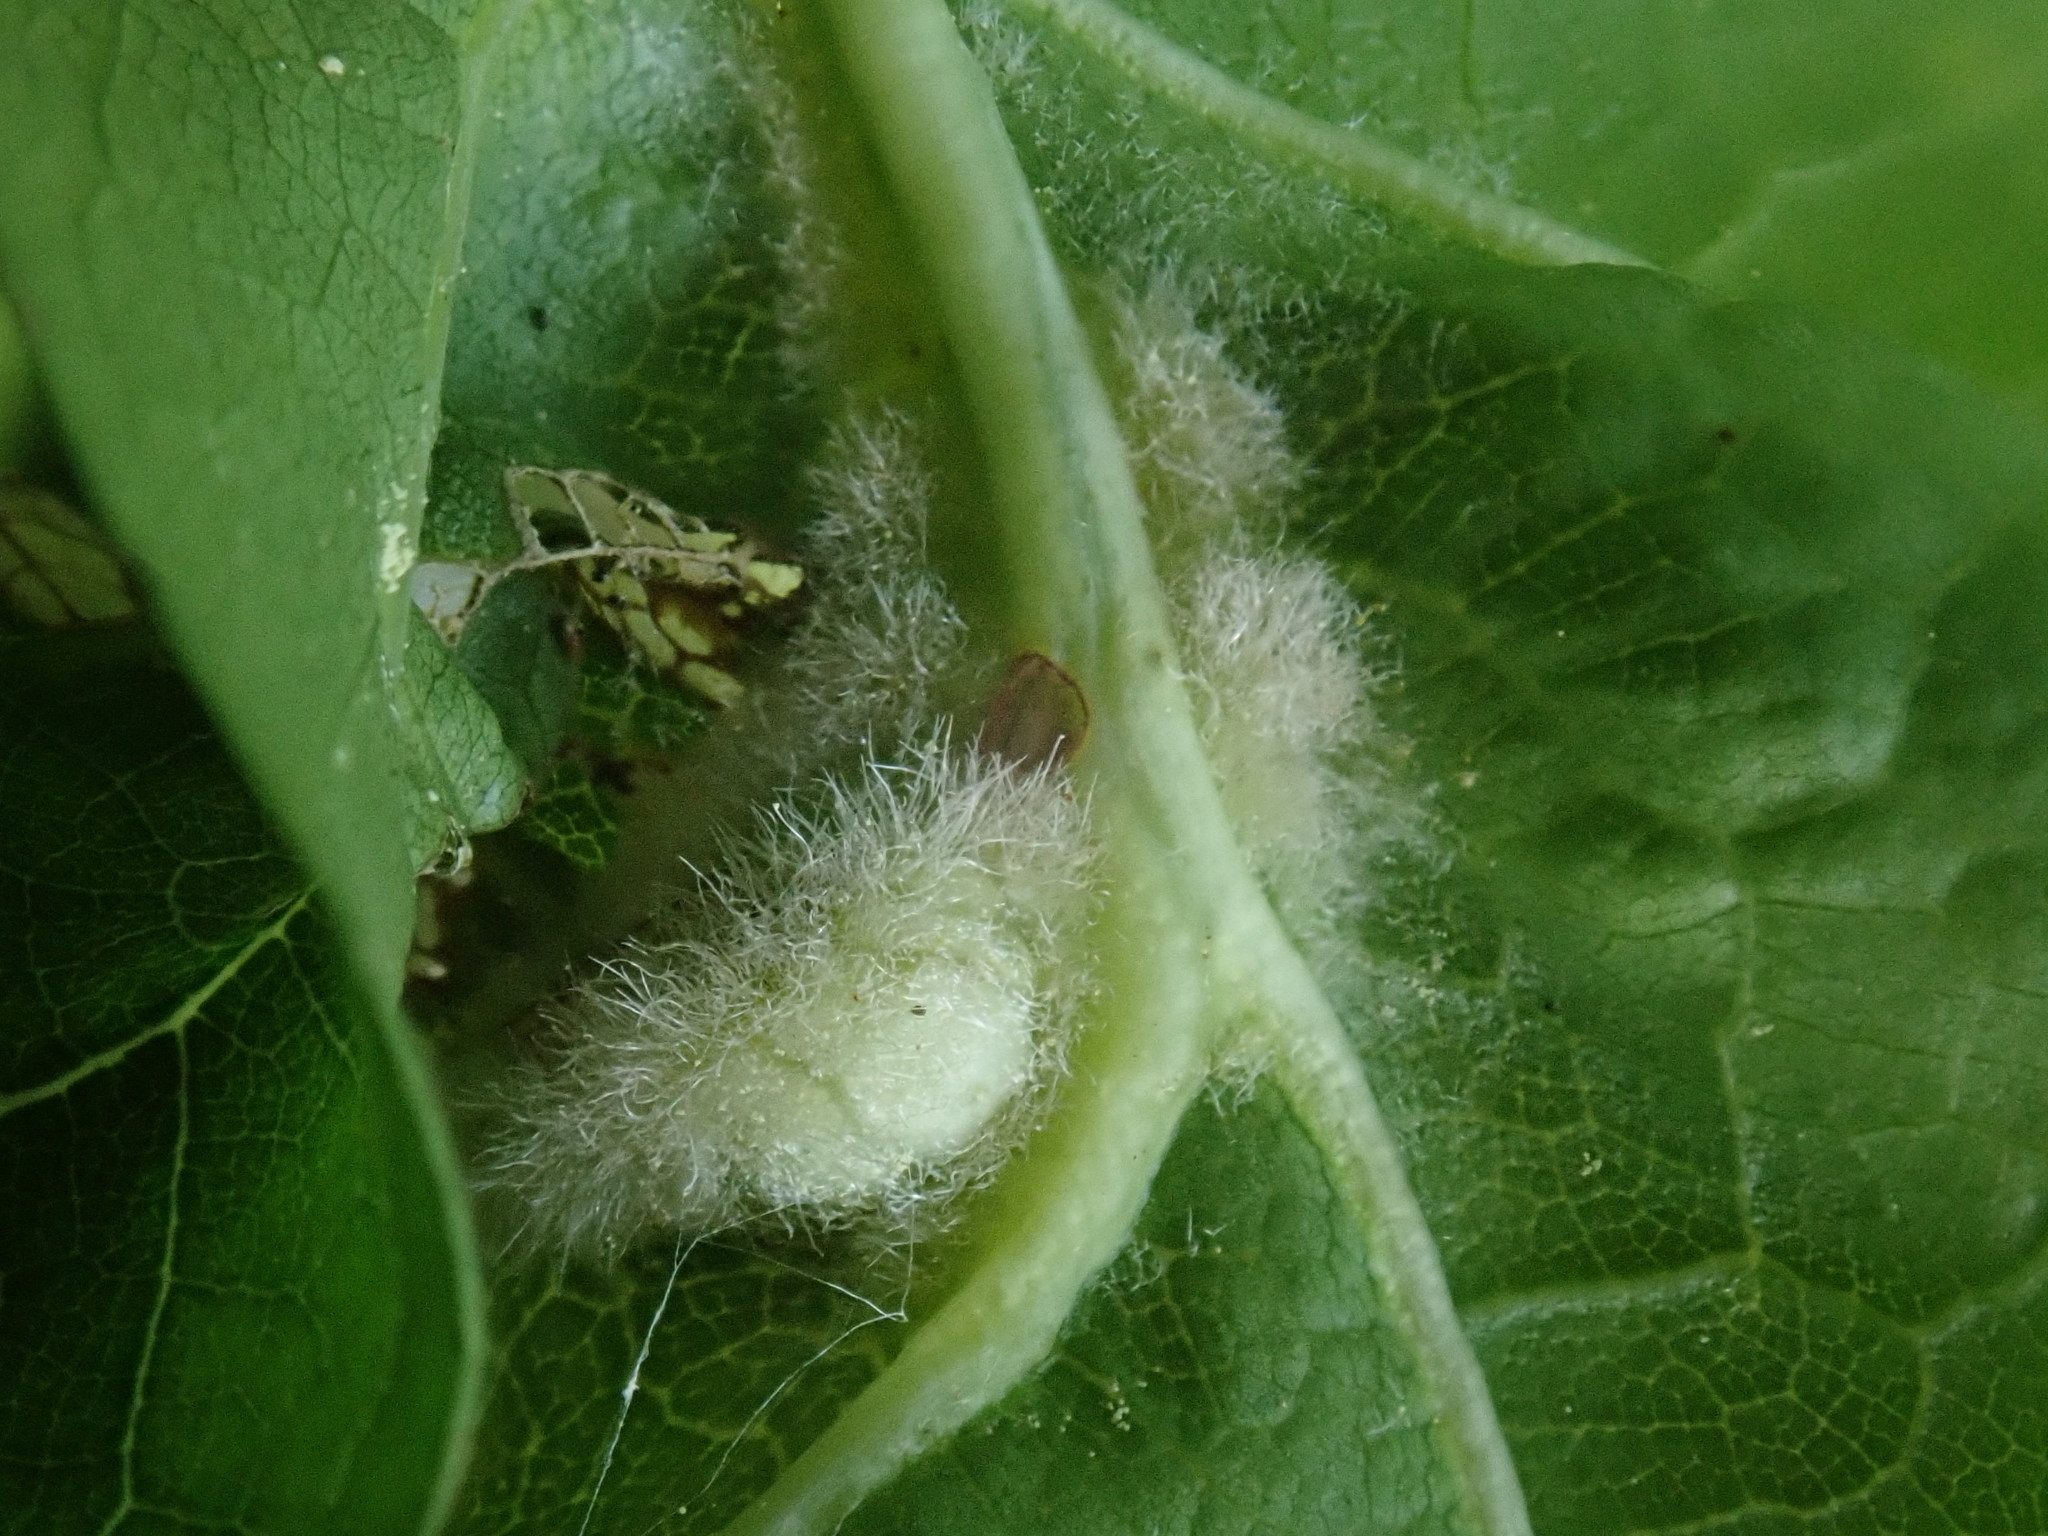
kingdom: Animalia
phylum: Arthropoda
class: Insecta
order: Diptera
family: Cecidomyiidae
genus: Macrodiplosis
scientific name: Macrodiplosis niveipila
